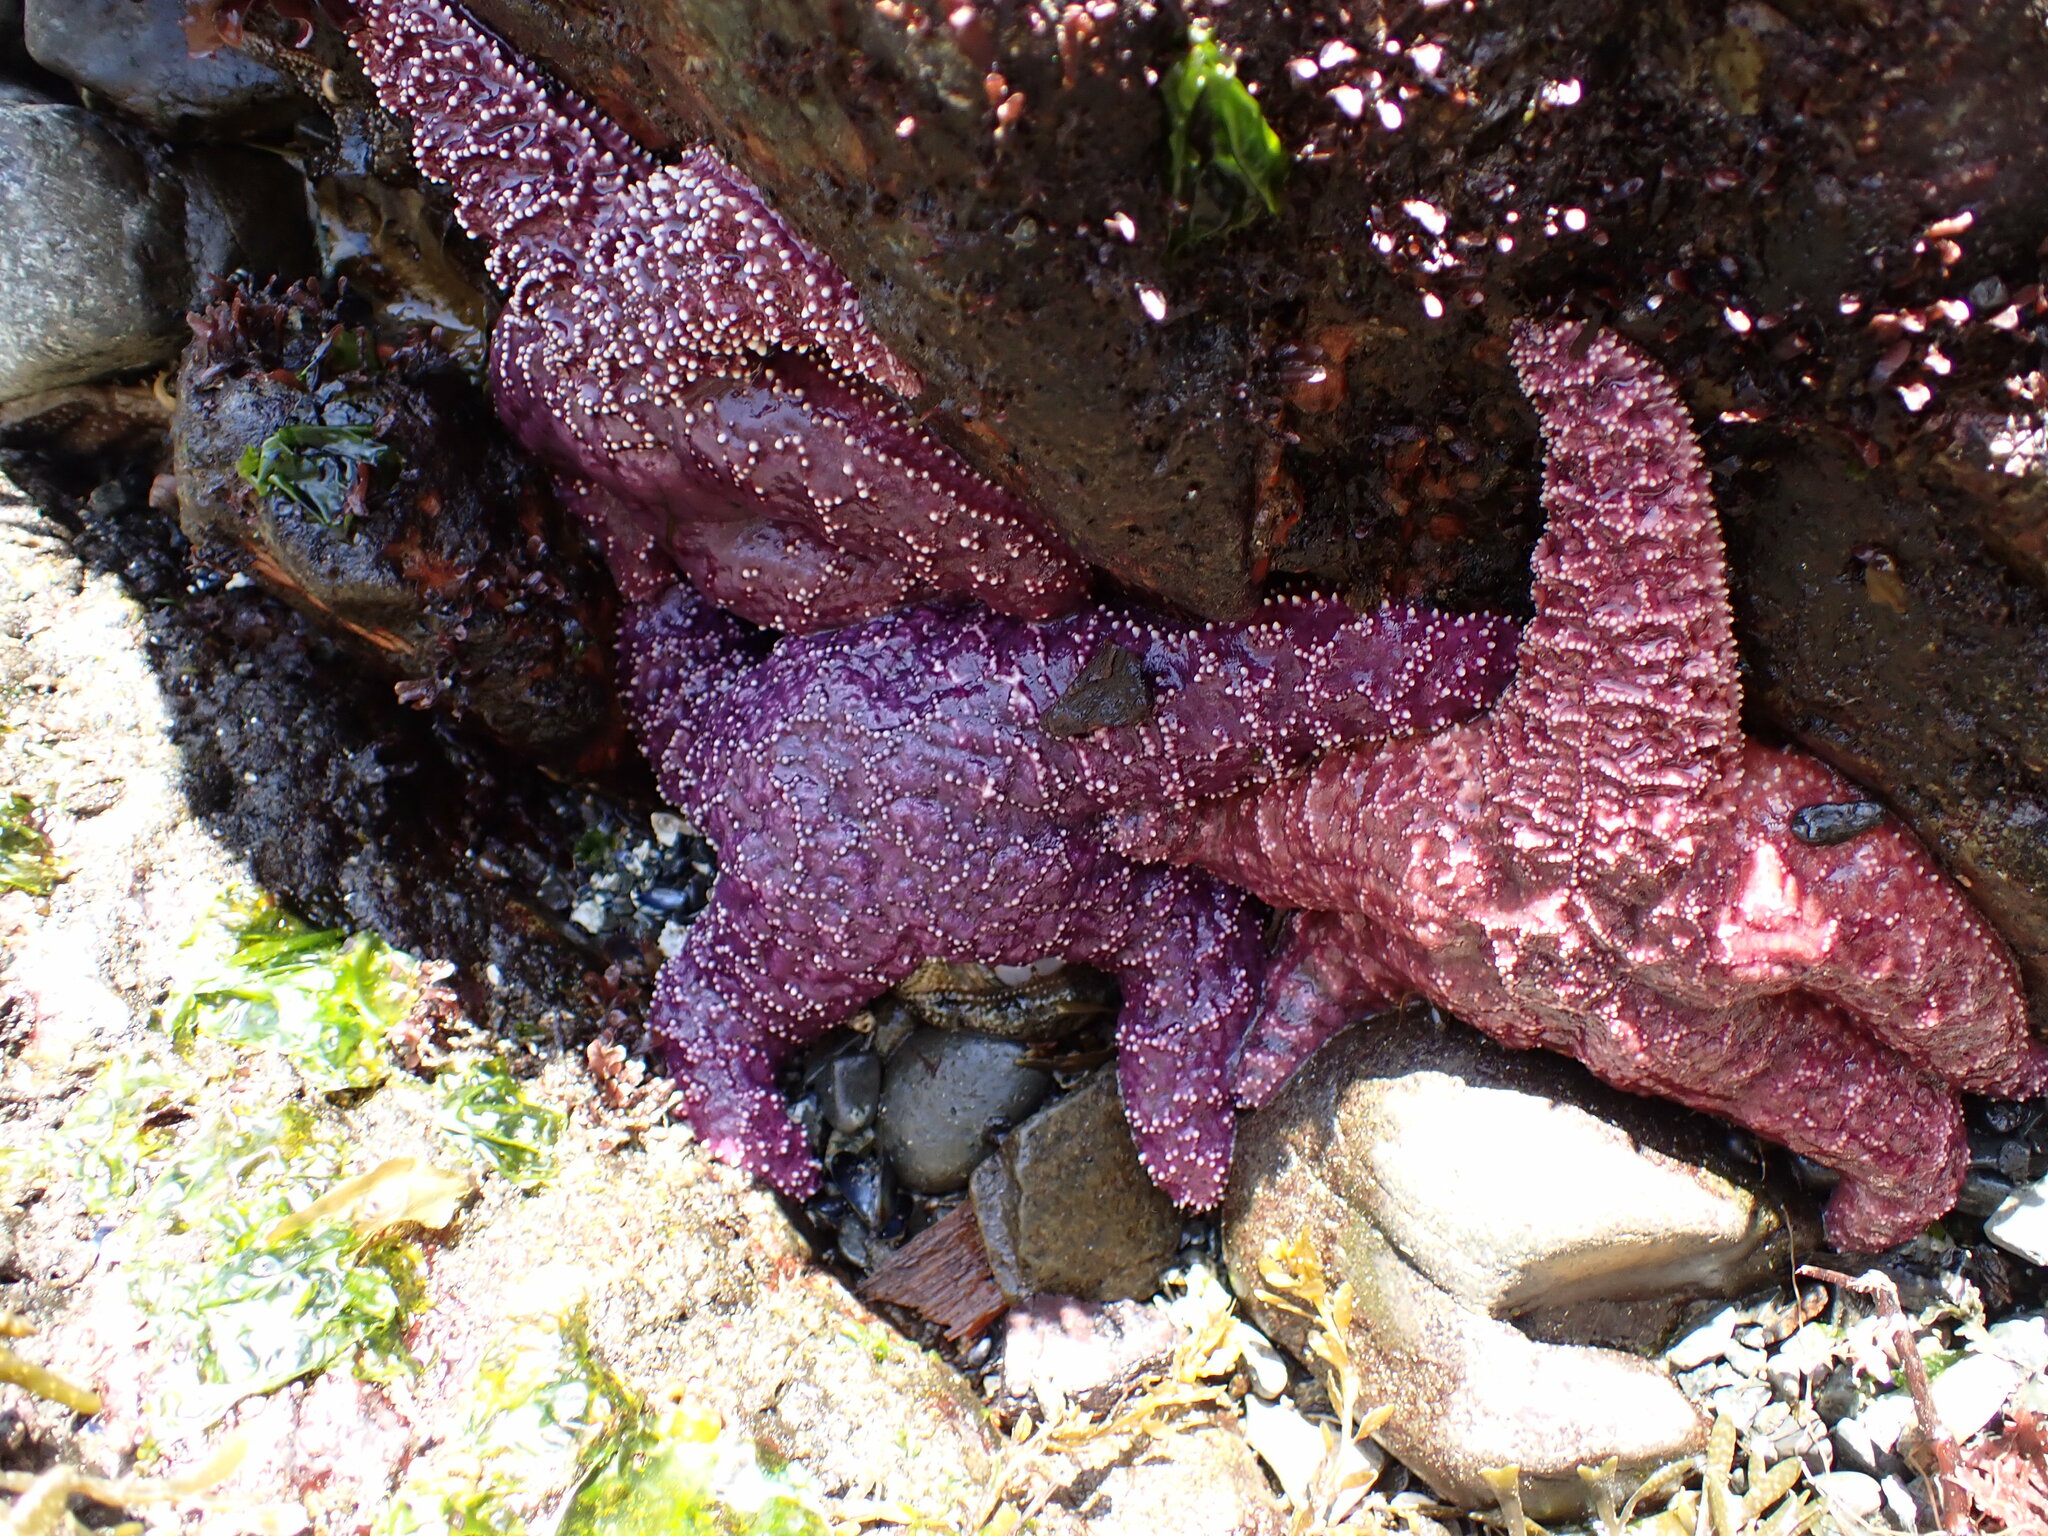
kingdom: Animalia
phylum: Echinodermata
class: Asteroidea
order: Forcipulatida
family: Asteriidae
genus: Pisaster
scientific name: Pisaster ochraceus
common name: Ochre stars
